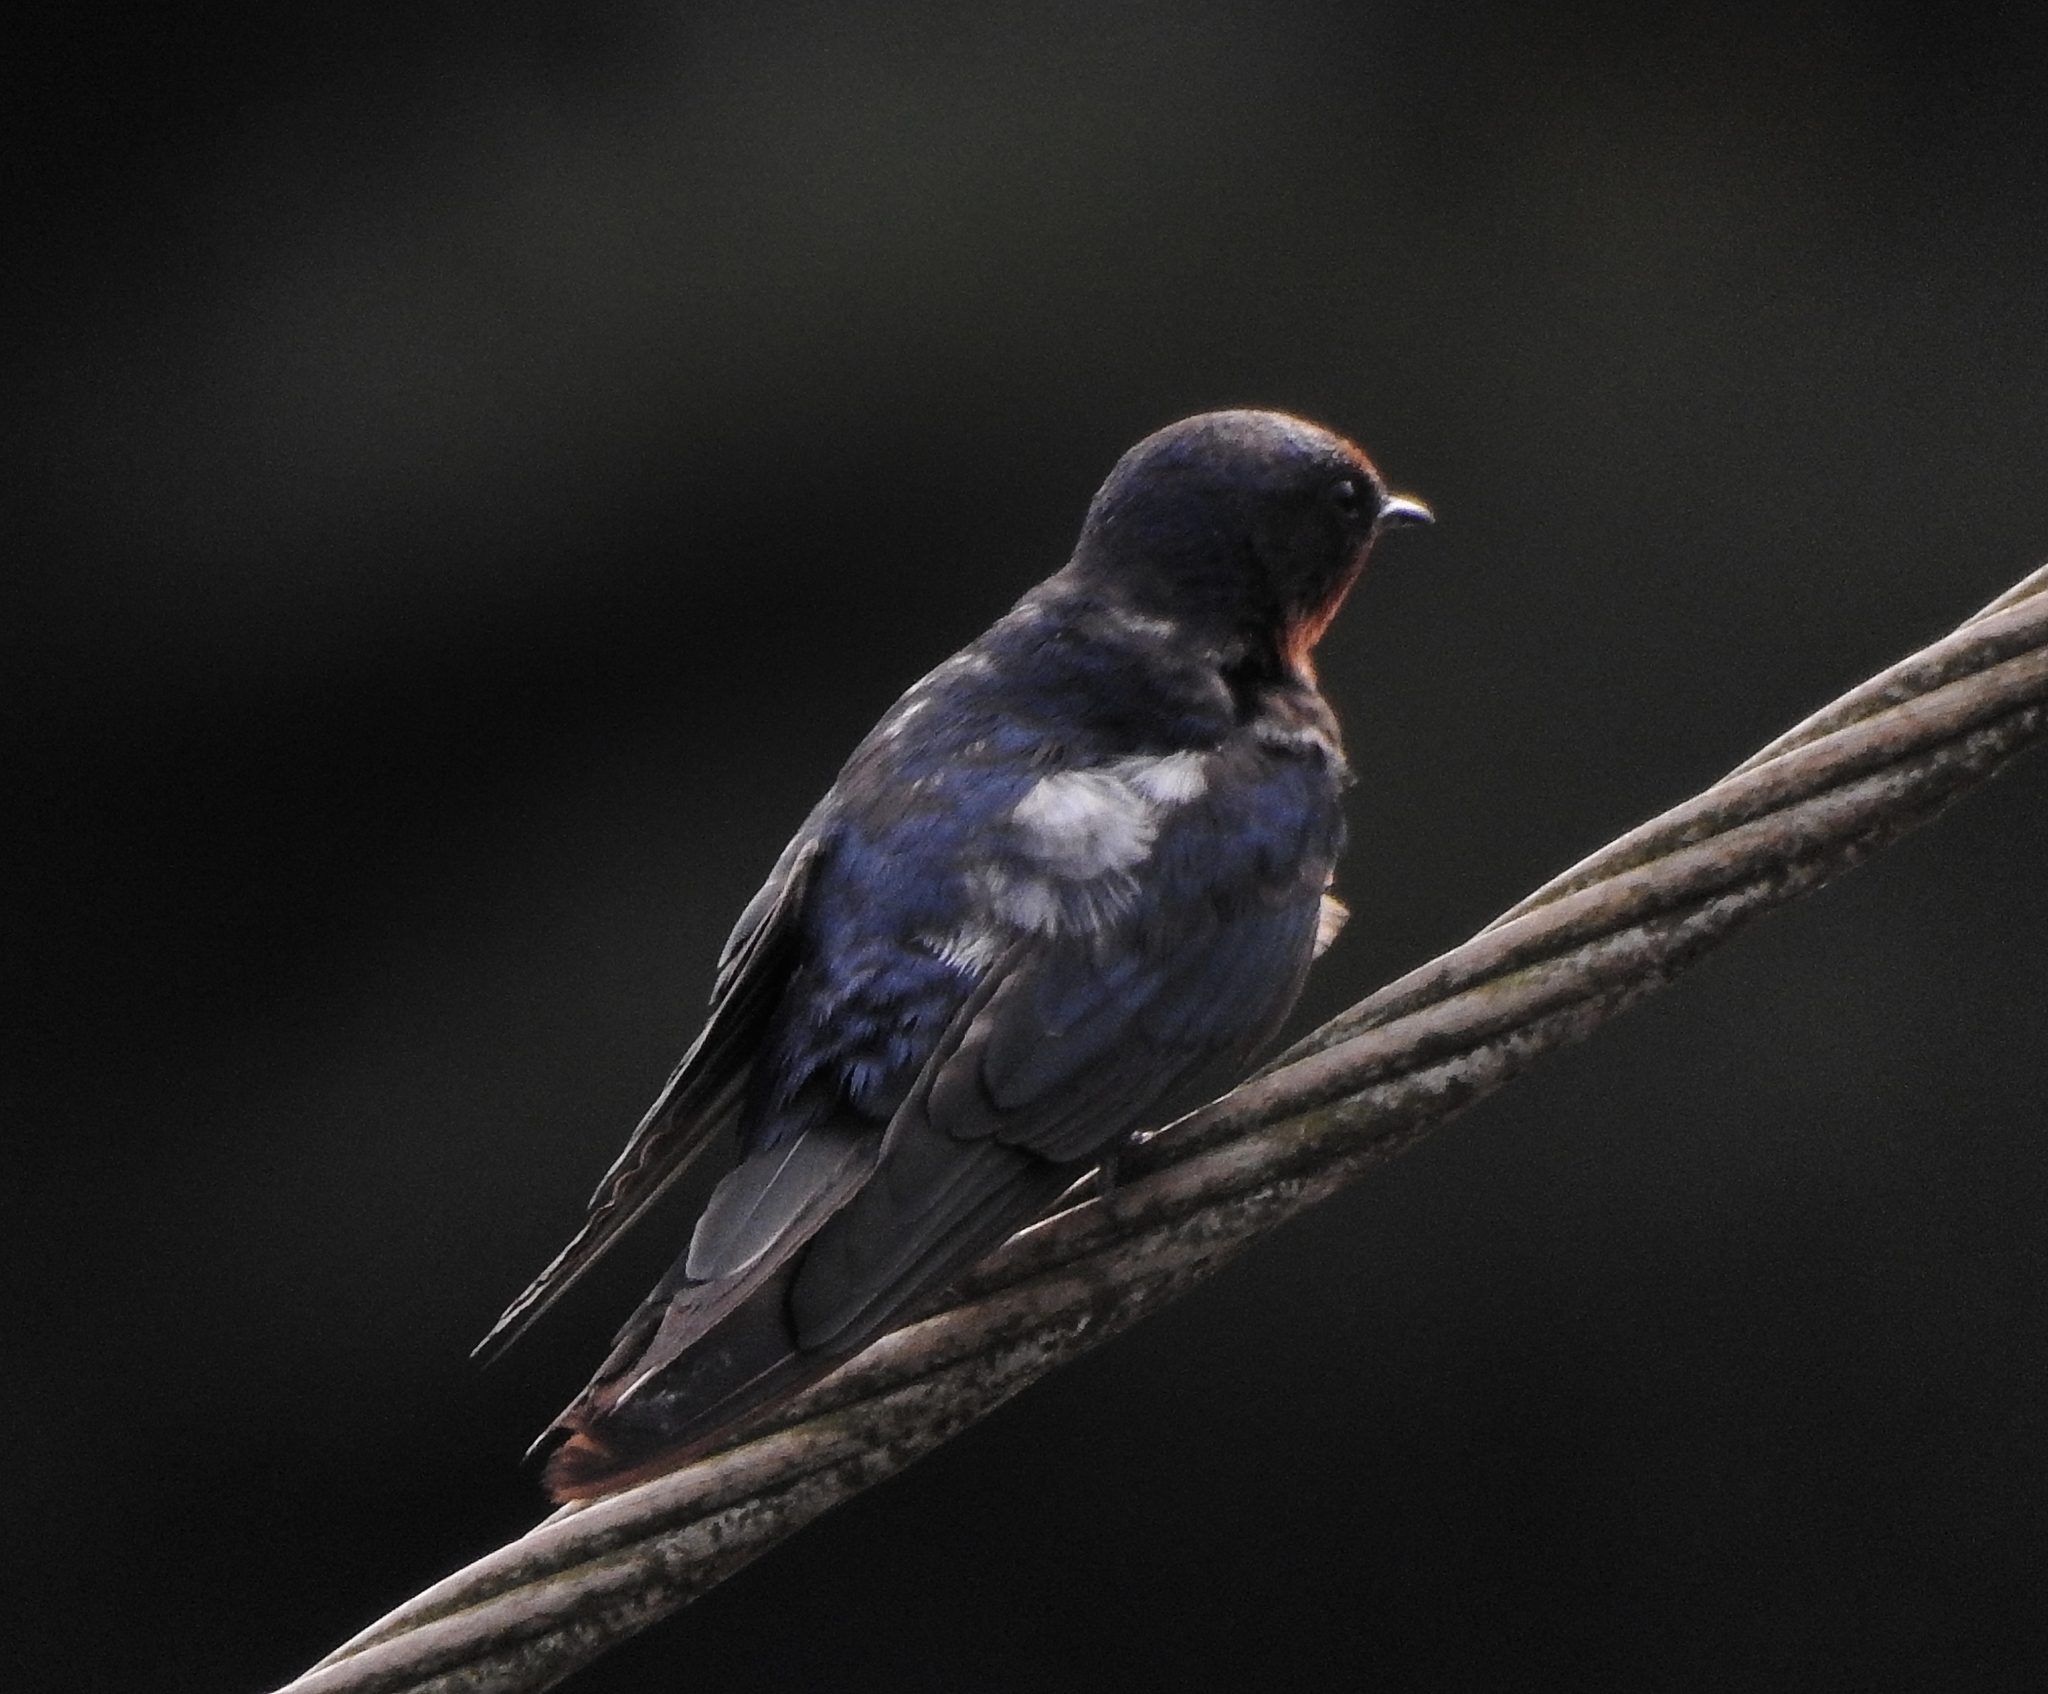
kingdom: Animalia
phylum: Chordata
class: Aves
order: Passeriformes
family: Hirundinidae
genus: Hirundo
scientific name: Hirundo rustica
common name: Barn swallow
